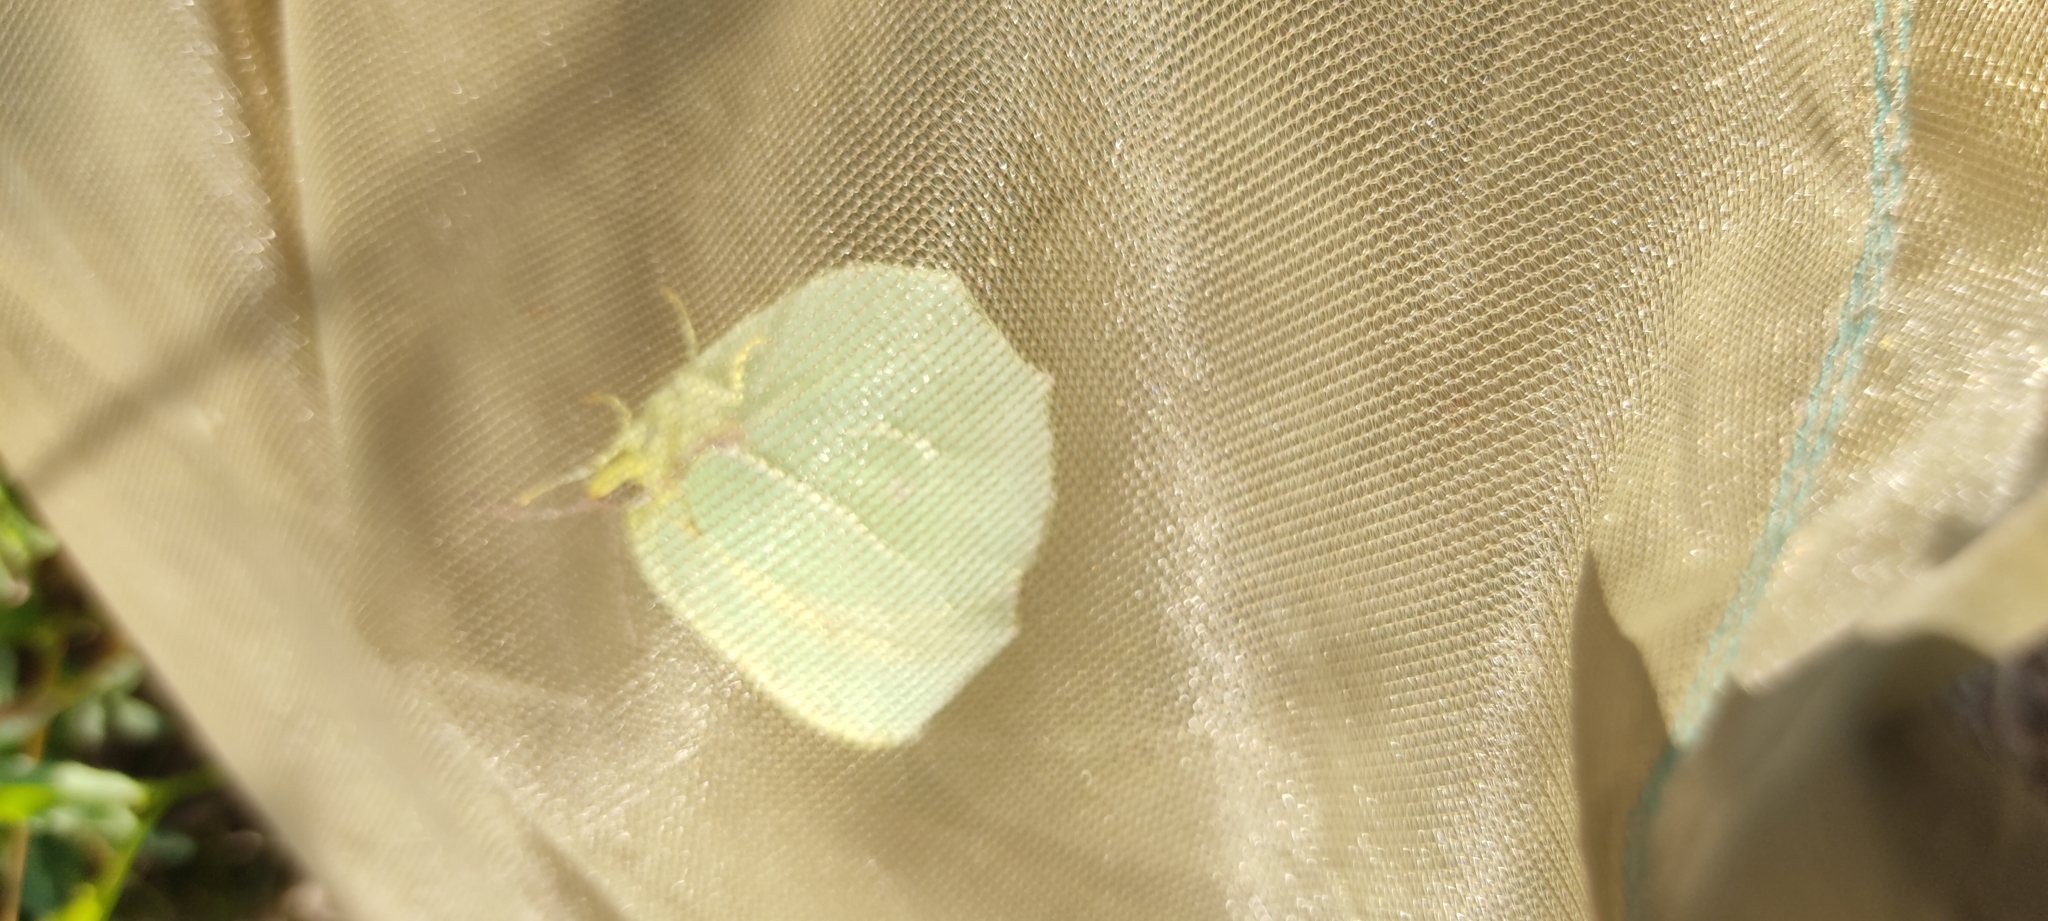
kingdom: Animalia
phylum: Arthropoda
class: Insecta
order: Lepidoptera
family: Pieridae
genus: Gonepteryx
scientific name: Gonepteryx cleopatra
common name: Cleopatra
